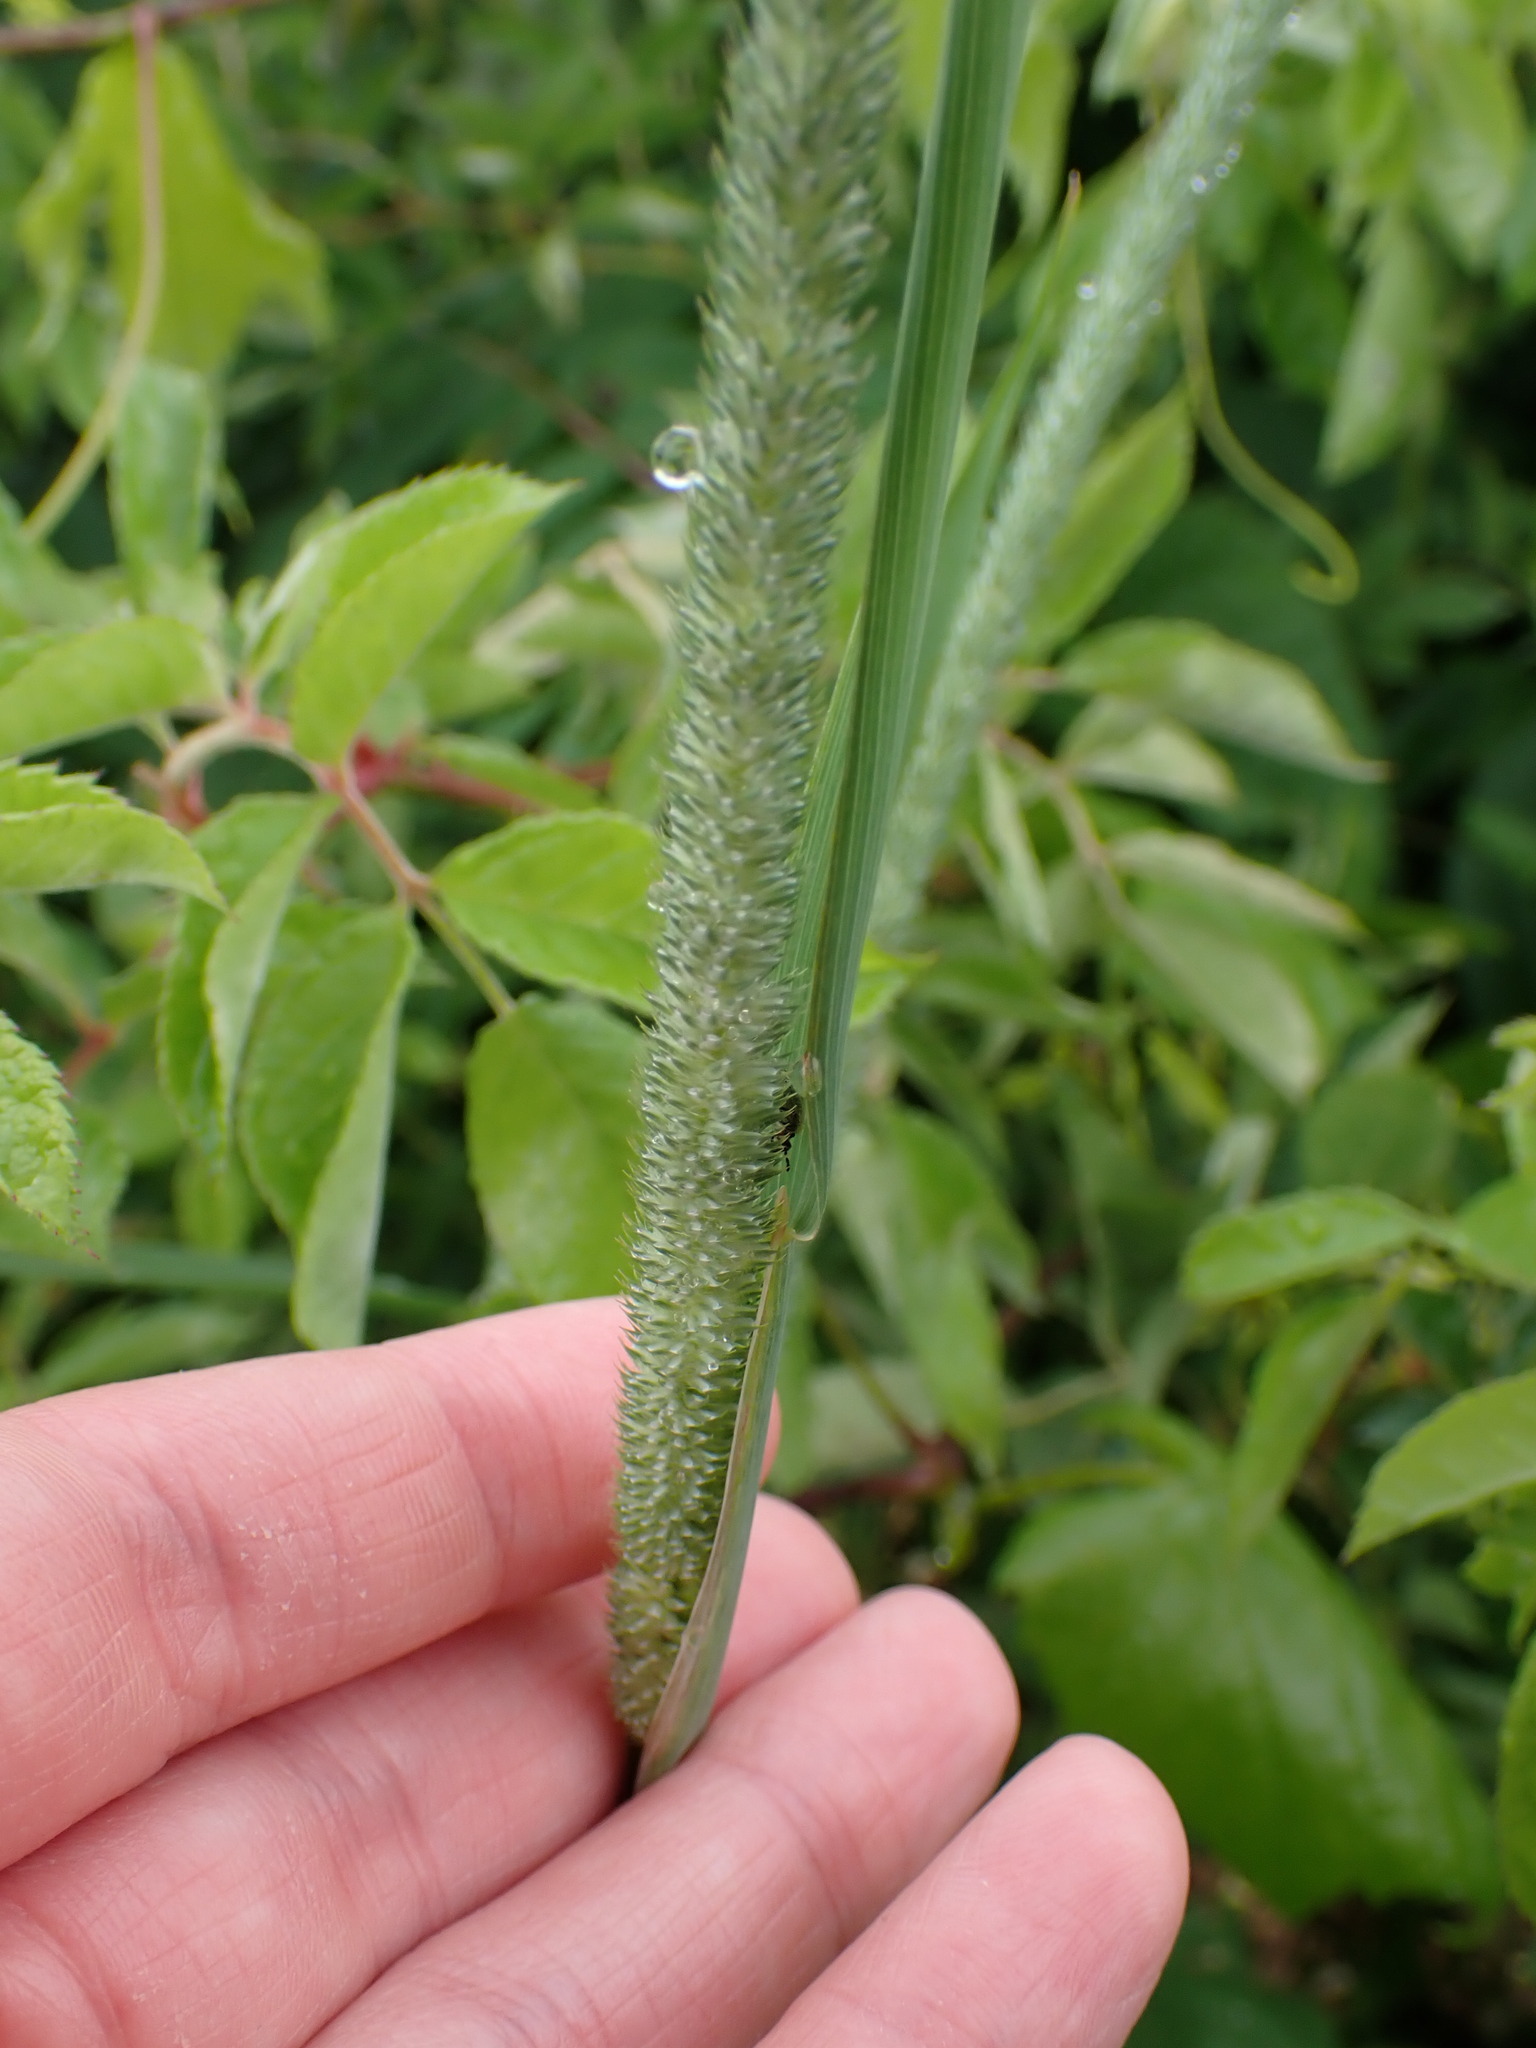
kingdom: Plantae
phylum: Tracheophyta
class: Liliopsida
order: Poales
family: Poaceae
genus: Phleum
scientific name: Phleum pratense
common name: Timothy grass
